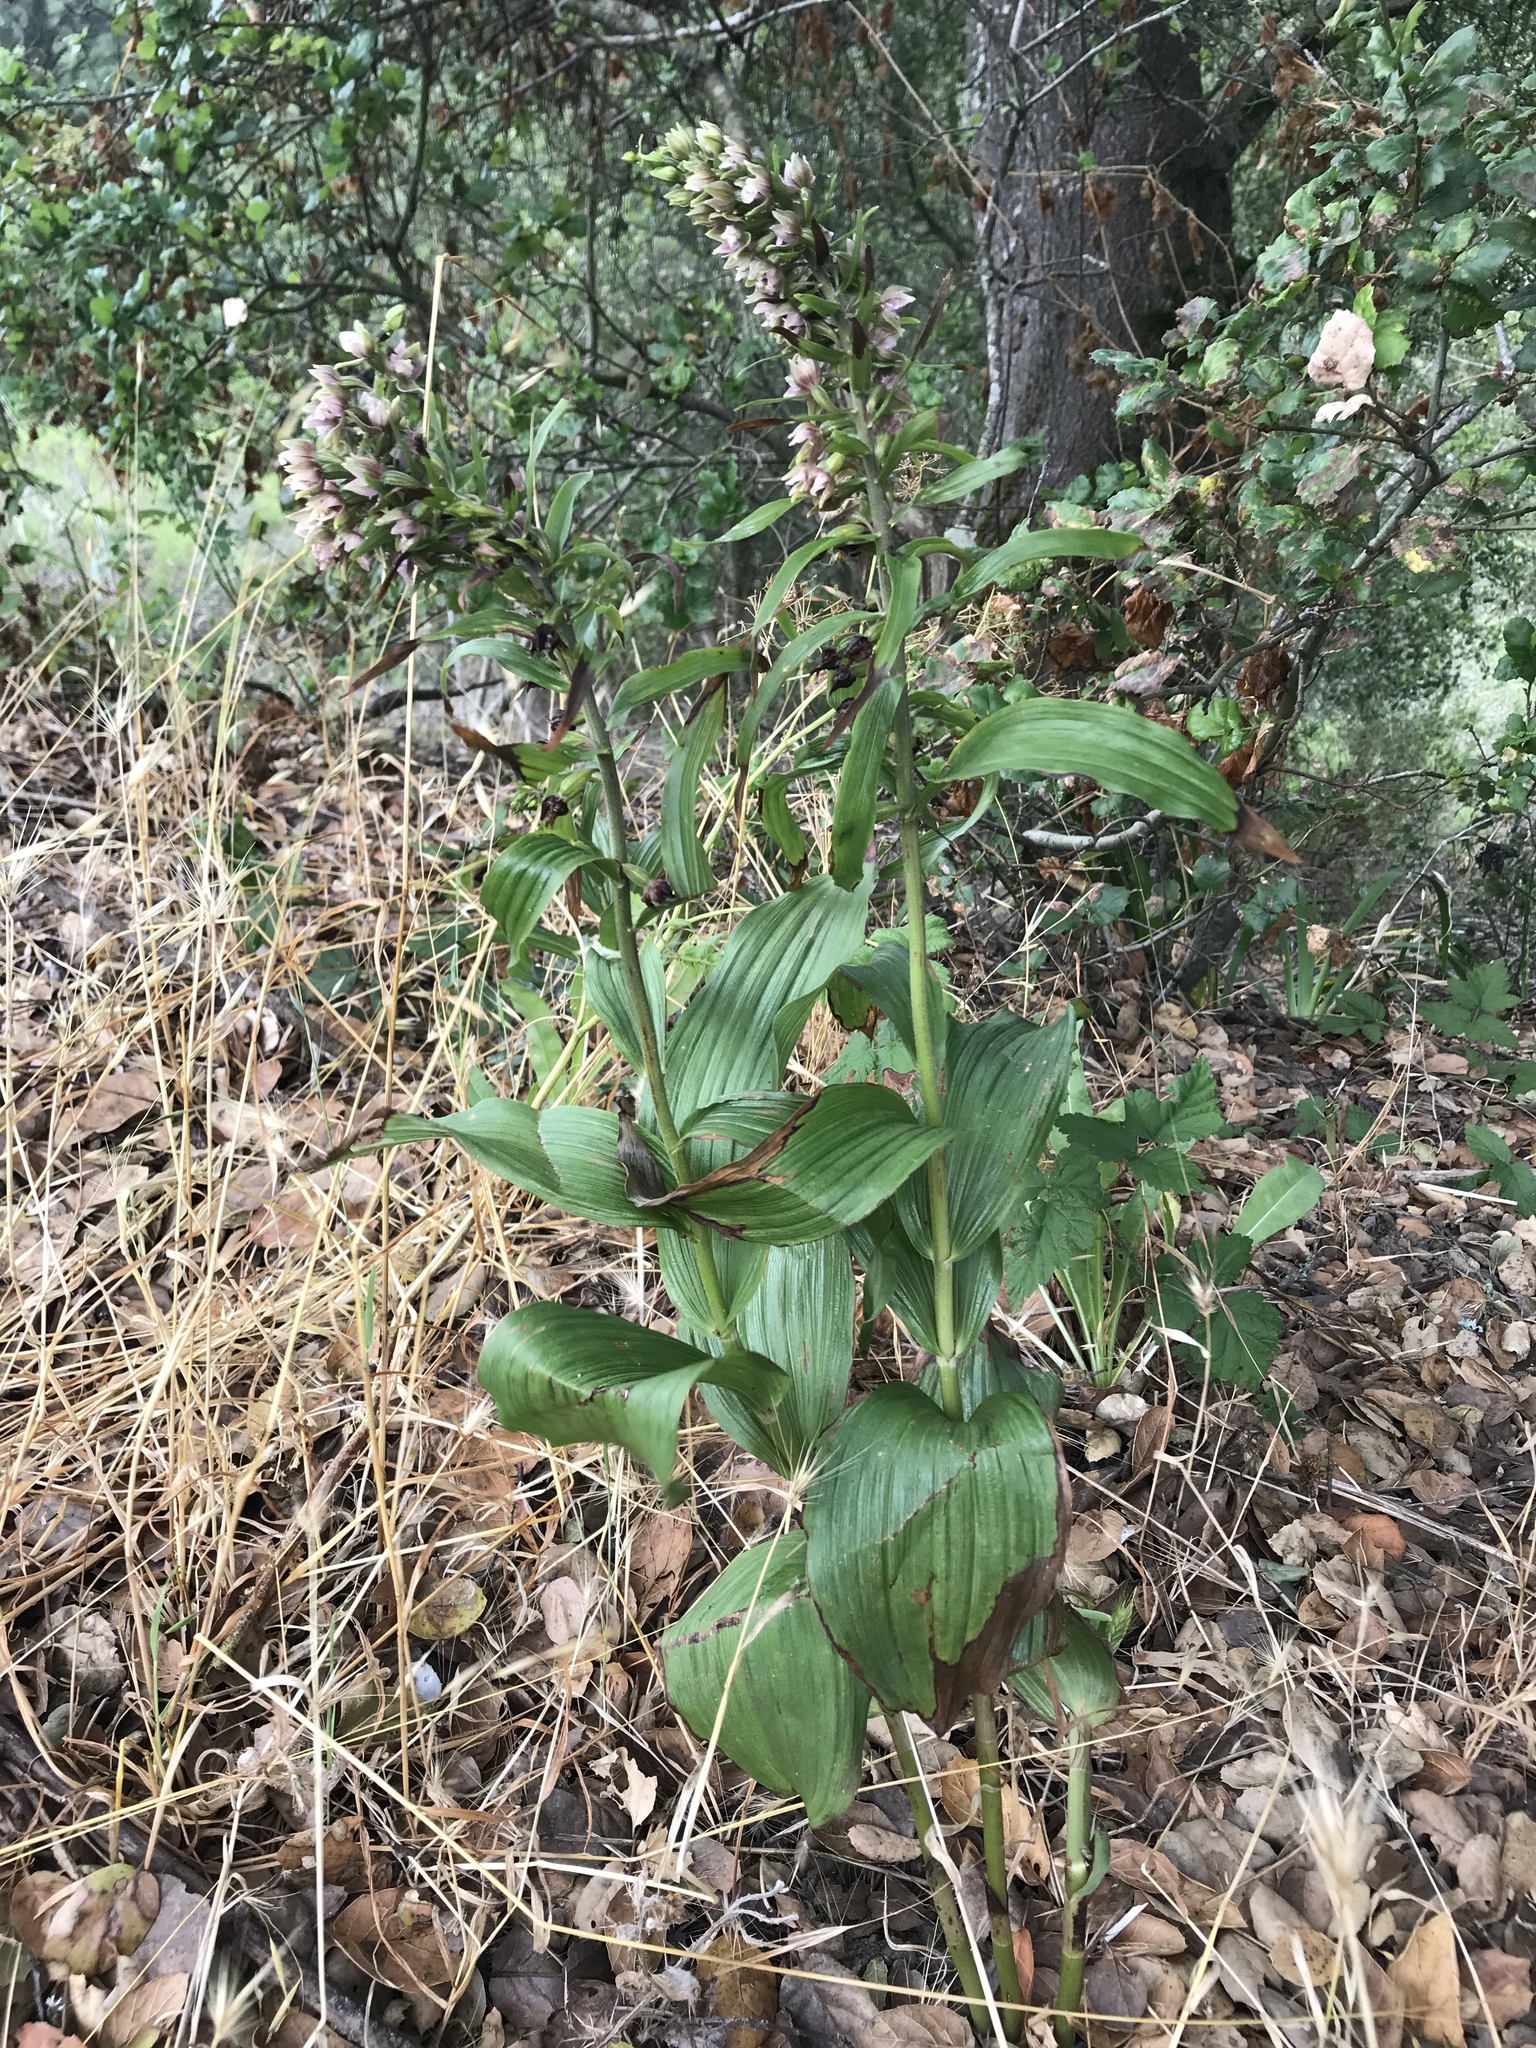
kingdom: Plantae
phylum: Tracheophyta
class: Liliopsida
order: Asparagales
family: Orchidaceae
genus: Epipactis
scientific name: Epipactis helleborine
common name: Broad-leaved helleborine
